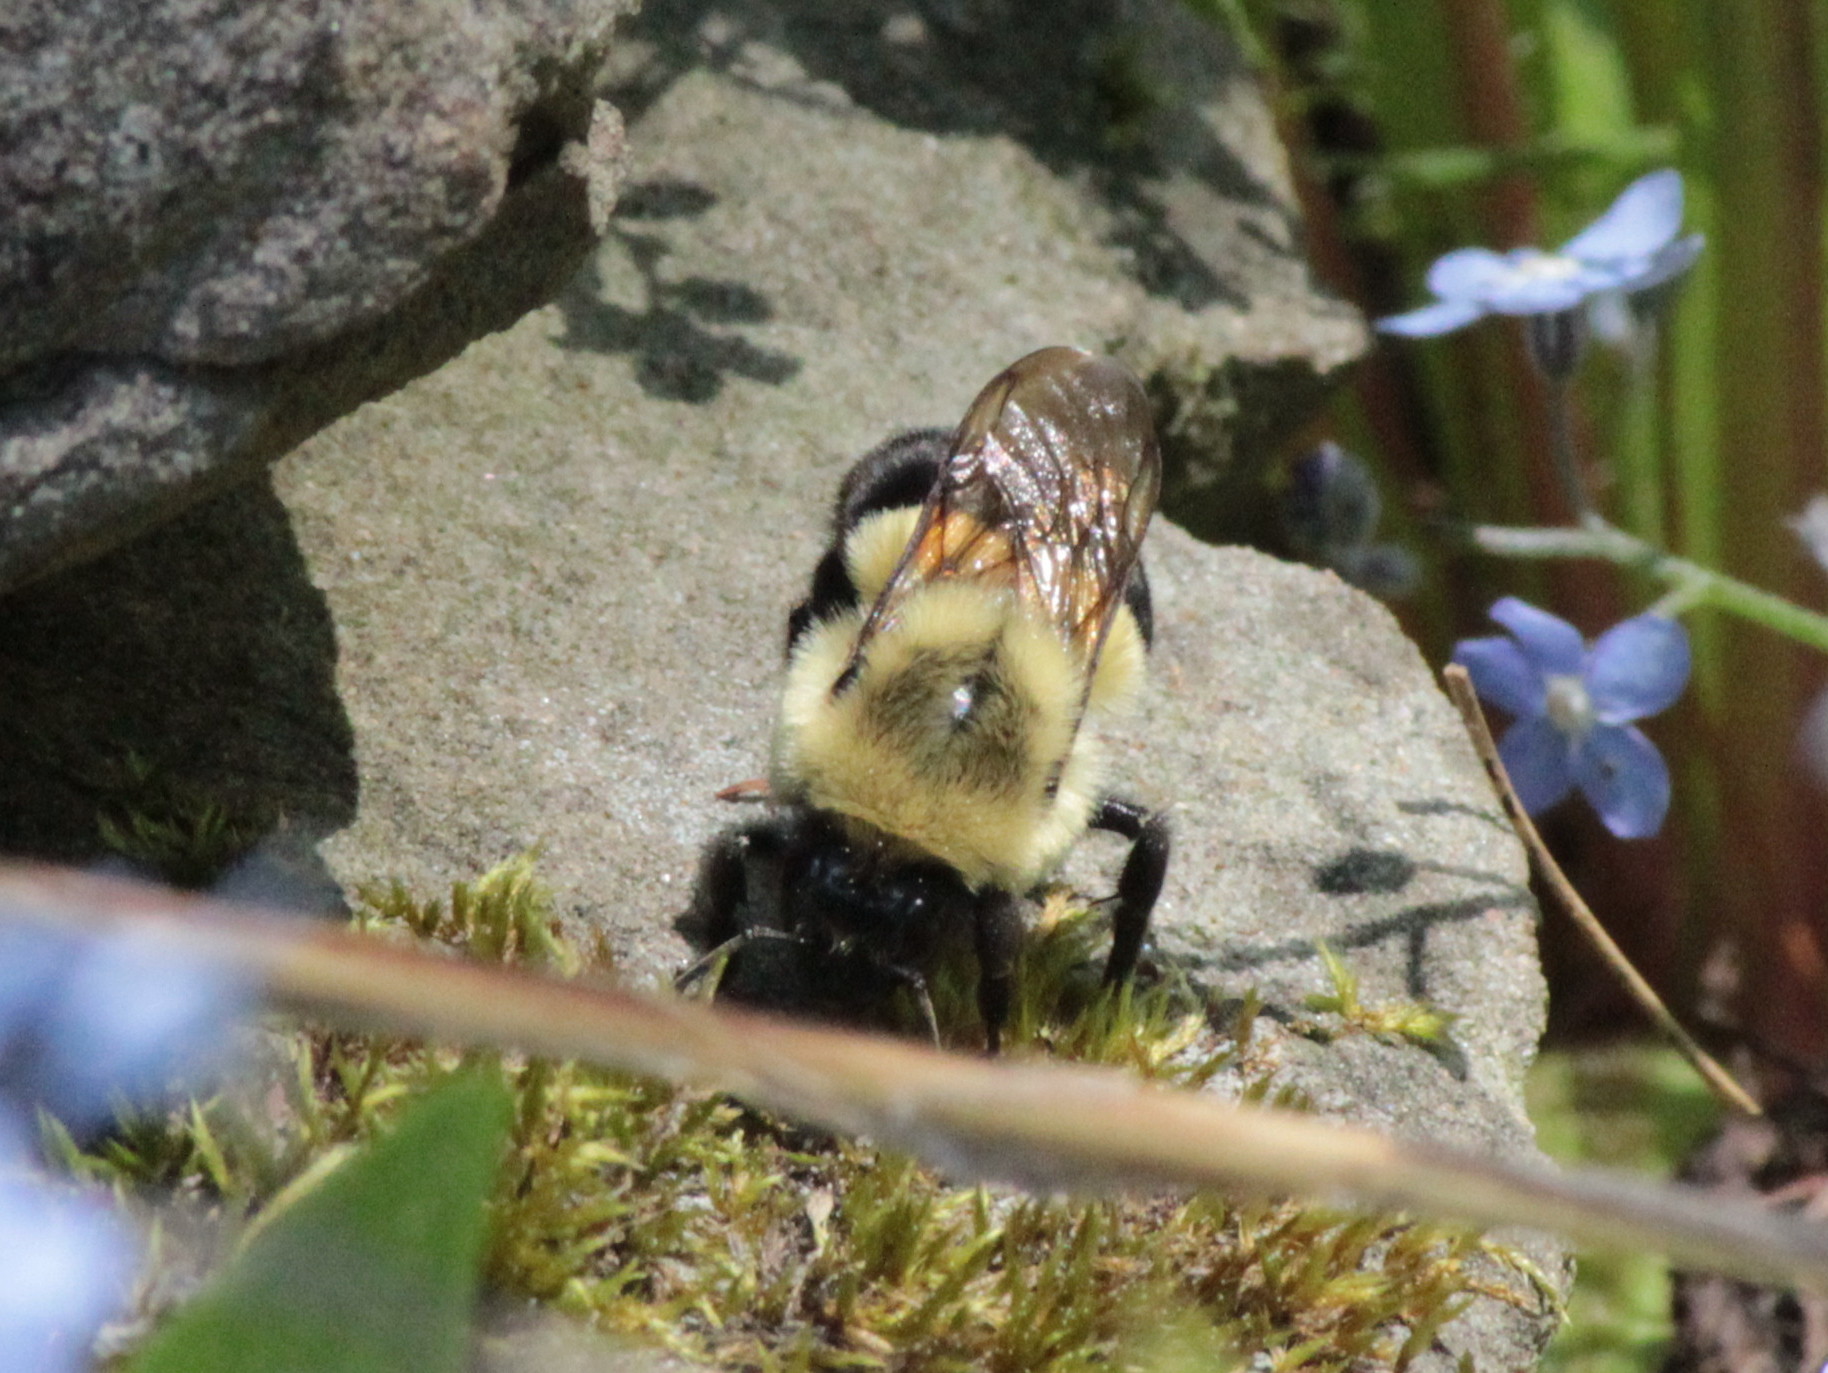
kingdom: Animalia
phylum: Arthropoda
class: Insecta
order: Hymenoptera
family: Apidae
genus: Bombus
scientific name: Bombus impatiens
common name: Common eastern bumble bee
